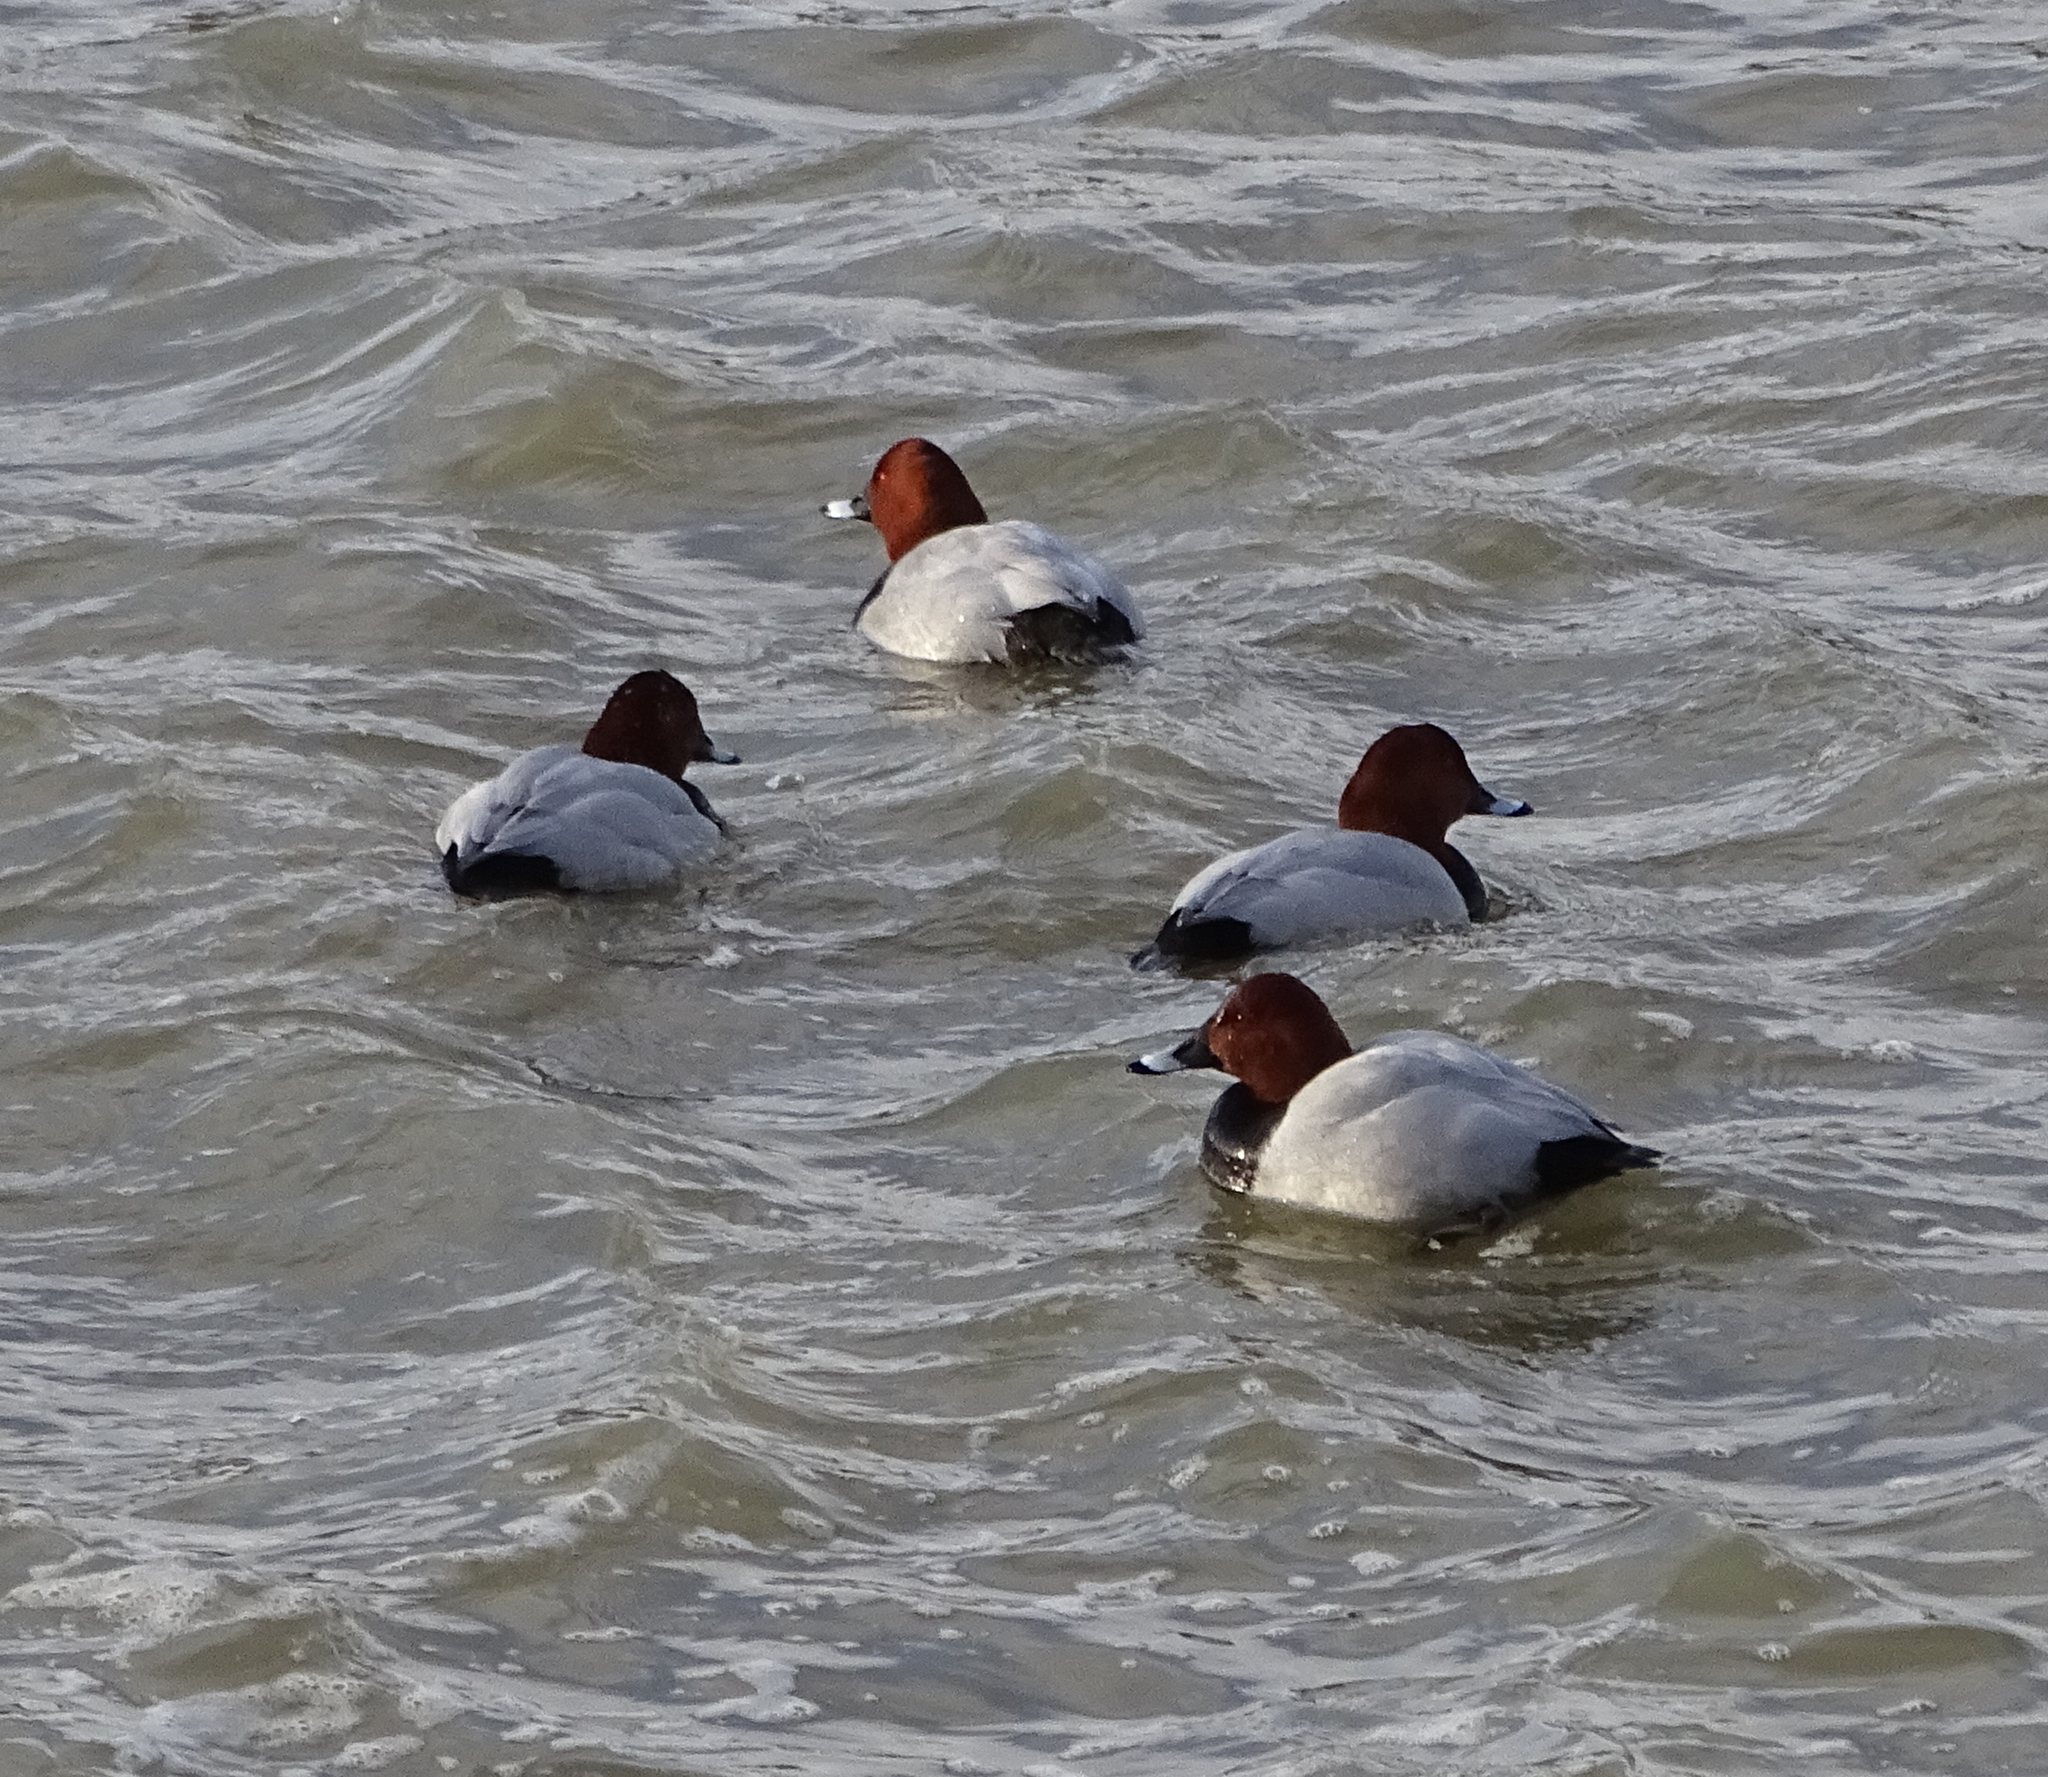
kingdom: Animalia
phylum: Chordata
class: Aves
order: Anseriformes
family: Anatidae
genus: Aythya
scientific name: Aythya ferina
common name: Common pochard
